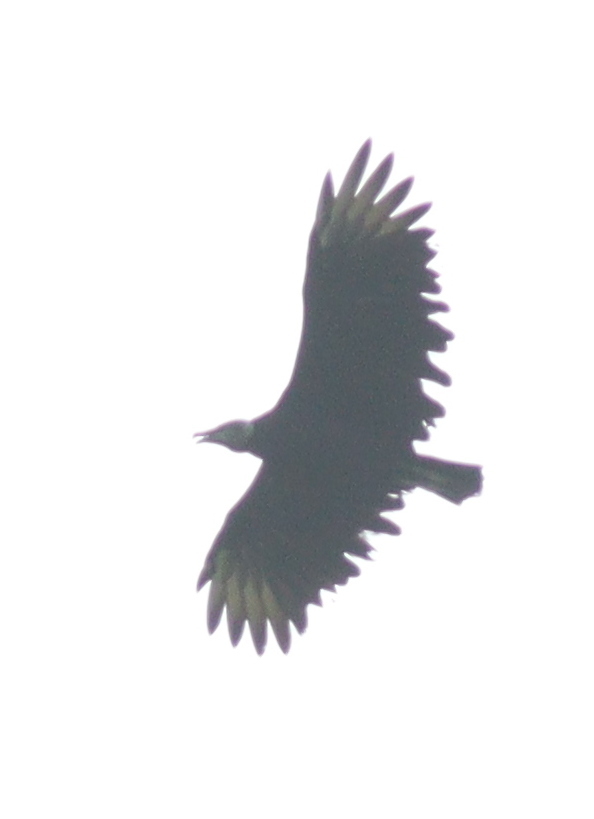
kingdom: Animalia
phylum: Chordata
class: Aves
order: Accipitriformes
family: Cathartidae
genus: Coragyps
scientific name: Coragyps atratus
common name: Black vulture
